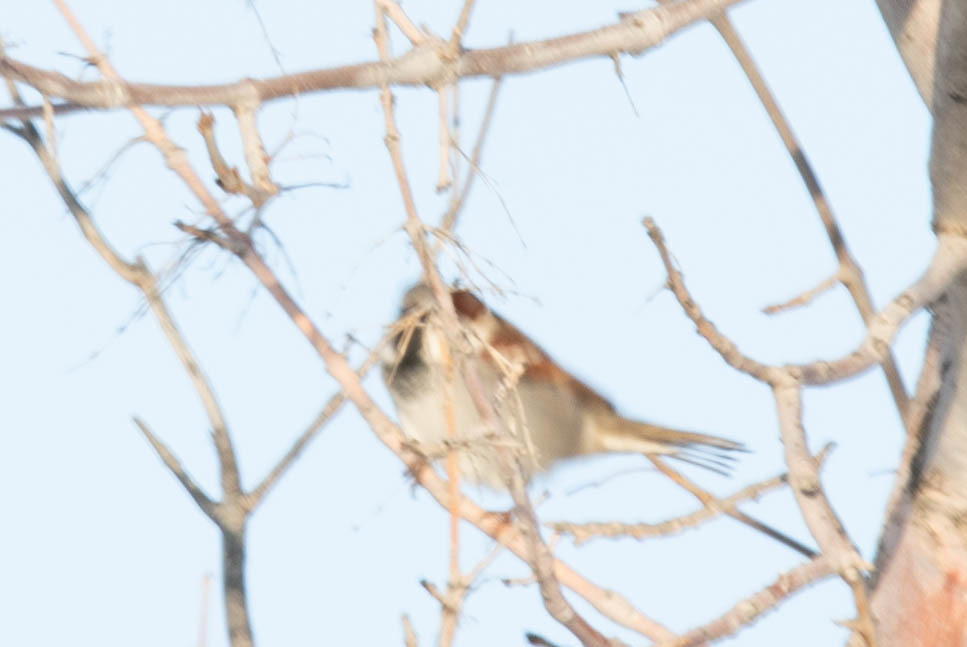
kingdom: Animalia
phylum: Chordata
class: Aves
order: Passeriformes
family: Passeridae
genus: Passer
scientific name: Passer domesticus
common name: House sparrow
